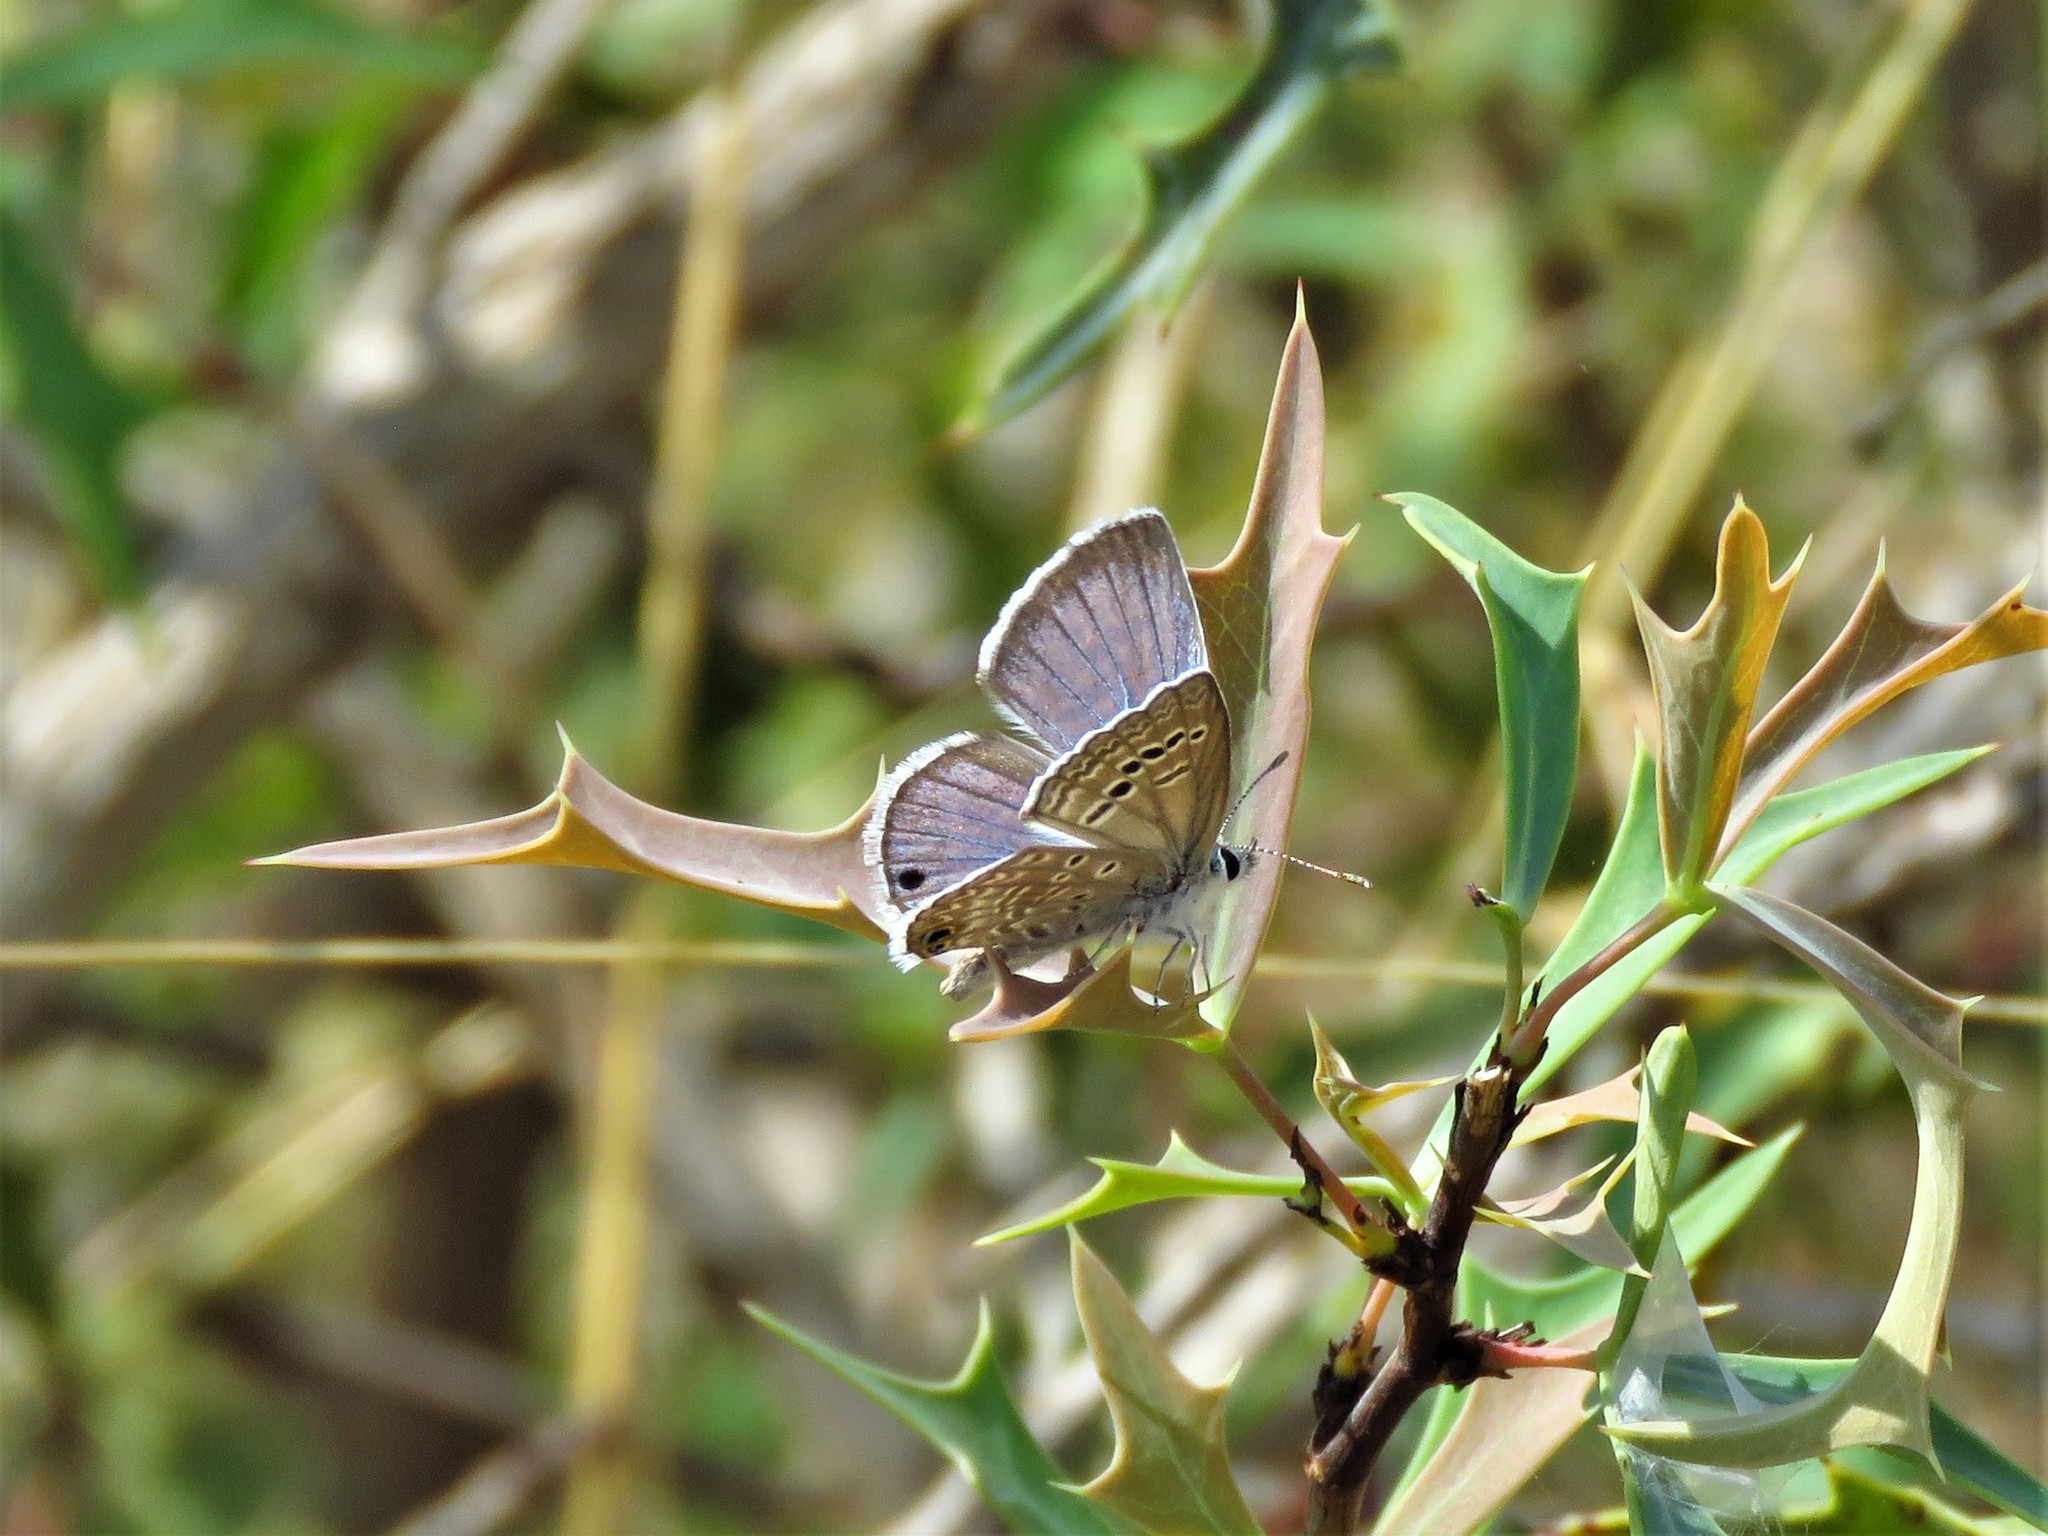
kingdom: Animalia
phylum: Arthropoda
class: Insecta
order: Lepidoptera
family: Lycaenidae
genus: Echinargus
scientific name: Echinargus isola
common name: Reakirt's blue
